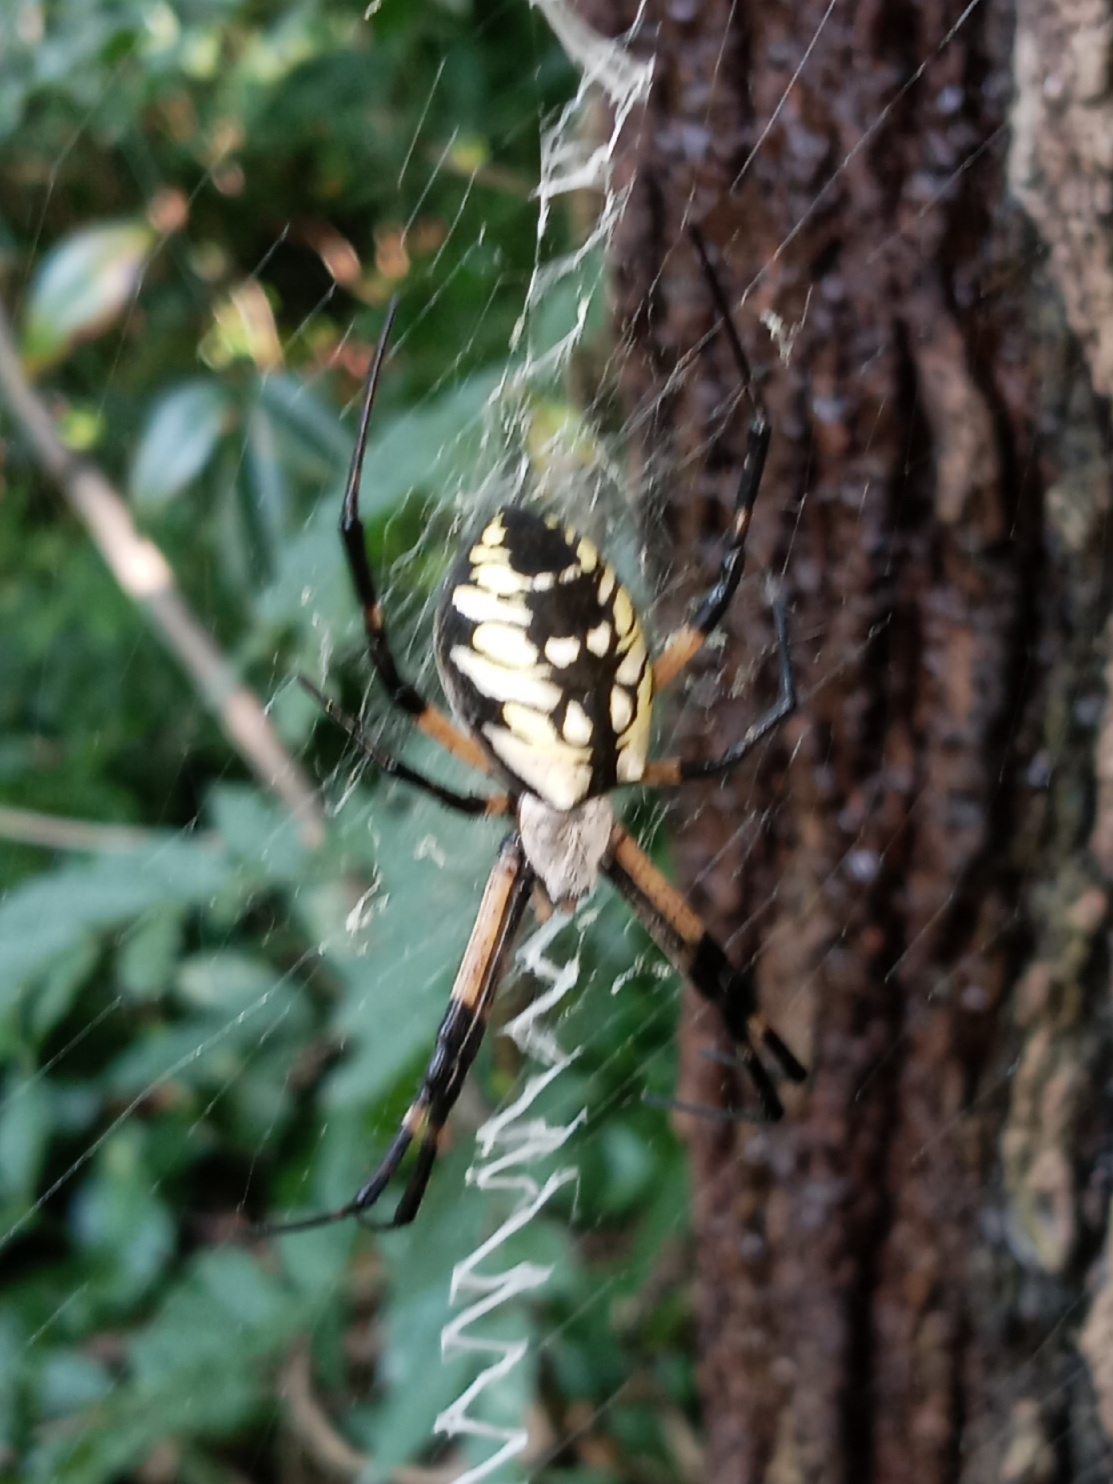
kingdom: Animalia
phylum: Arthropoda
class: Arachnida
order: Araneae
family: Araneidae
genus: Argiope
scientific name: Argiope aurantia
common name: Orb weavers
